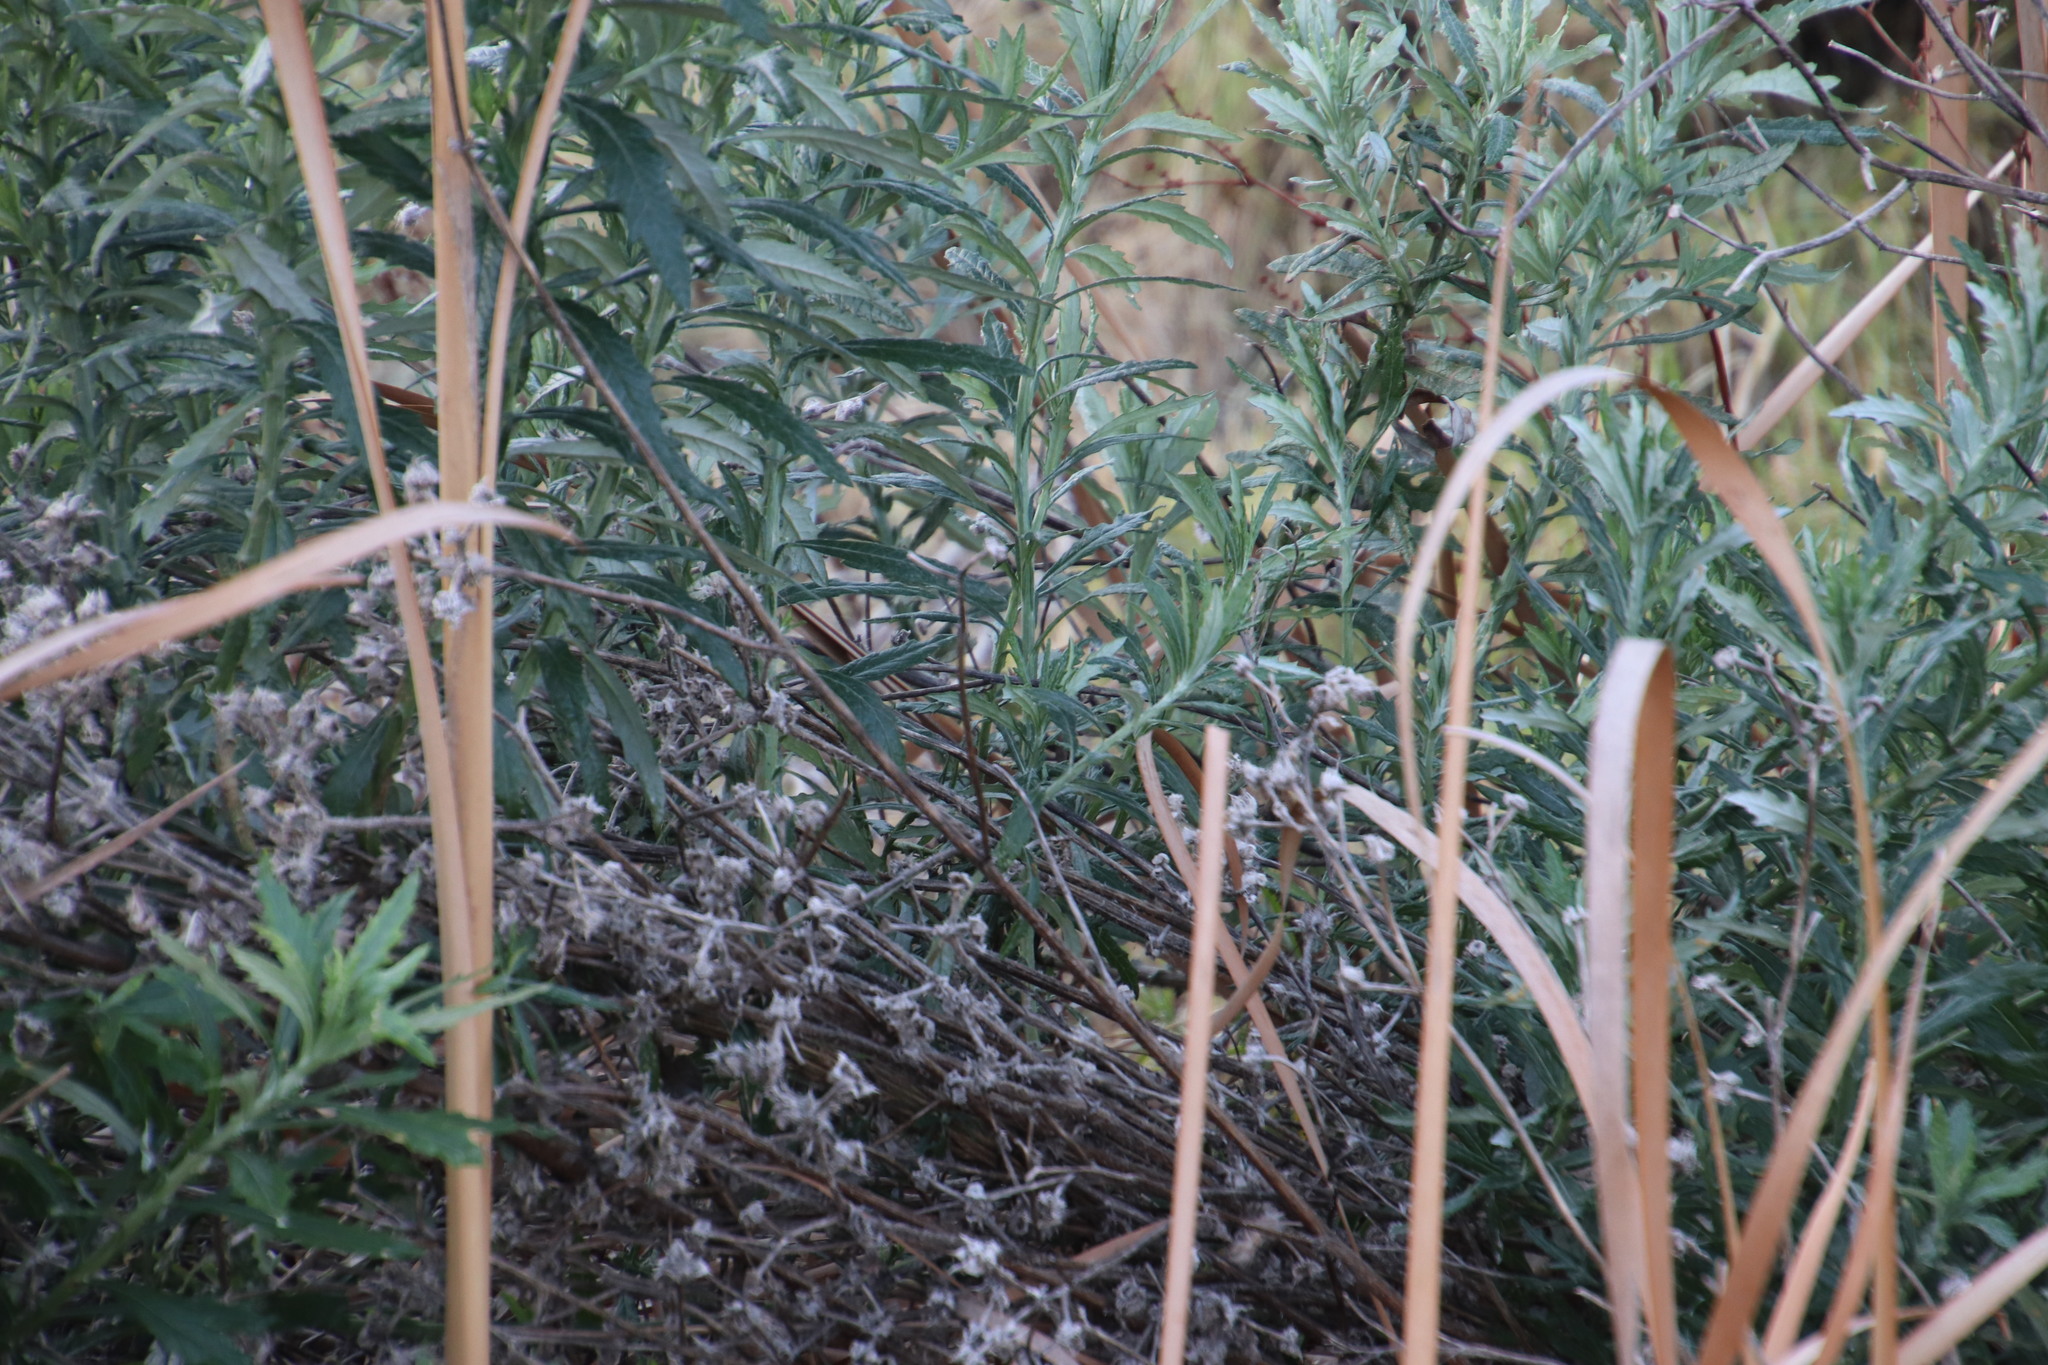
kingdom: Plantae
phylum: Tracheophyta
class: Magnoliopsida
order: Asterales
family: Asteraceae
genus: Senecio
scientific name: Senecio pterophorus
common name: Shoddy ragwort
